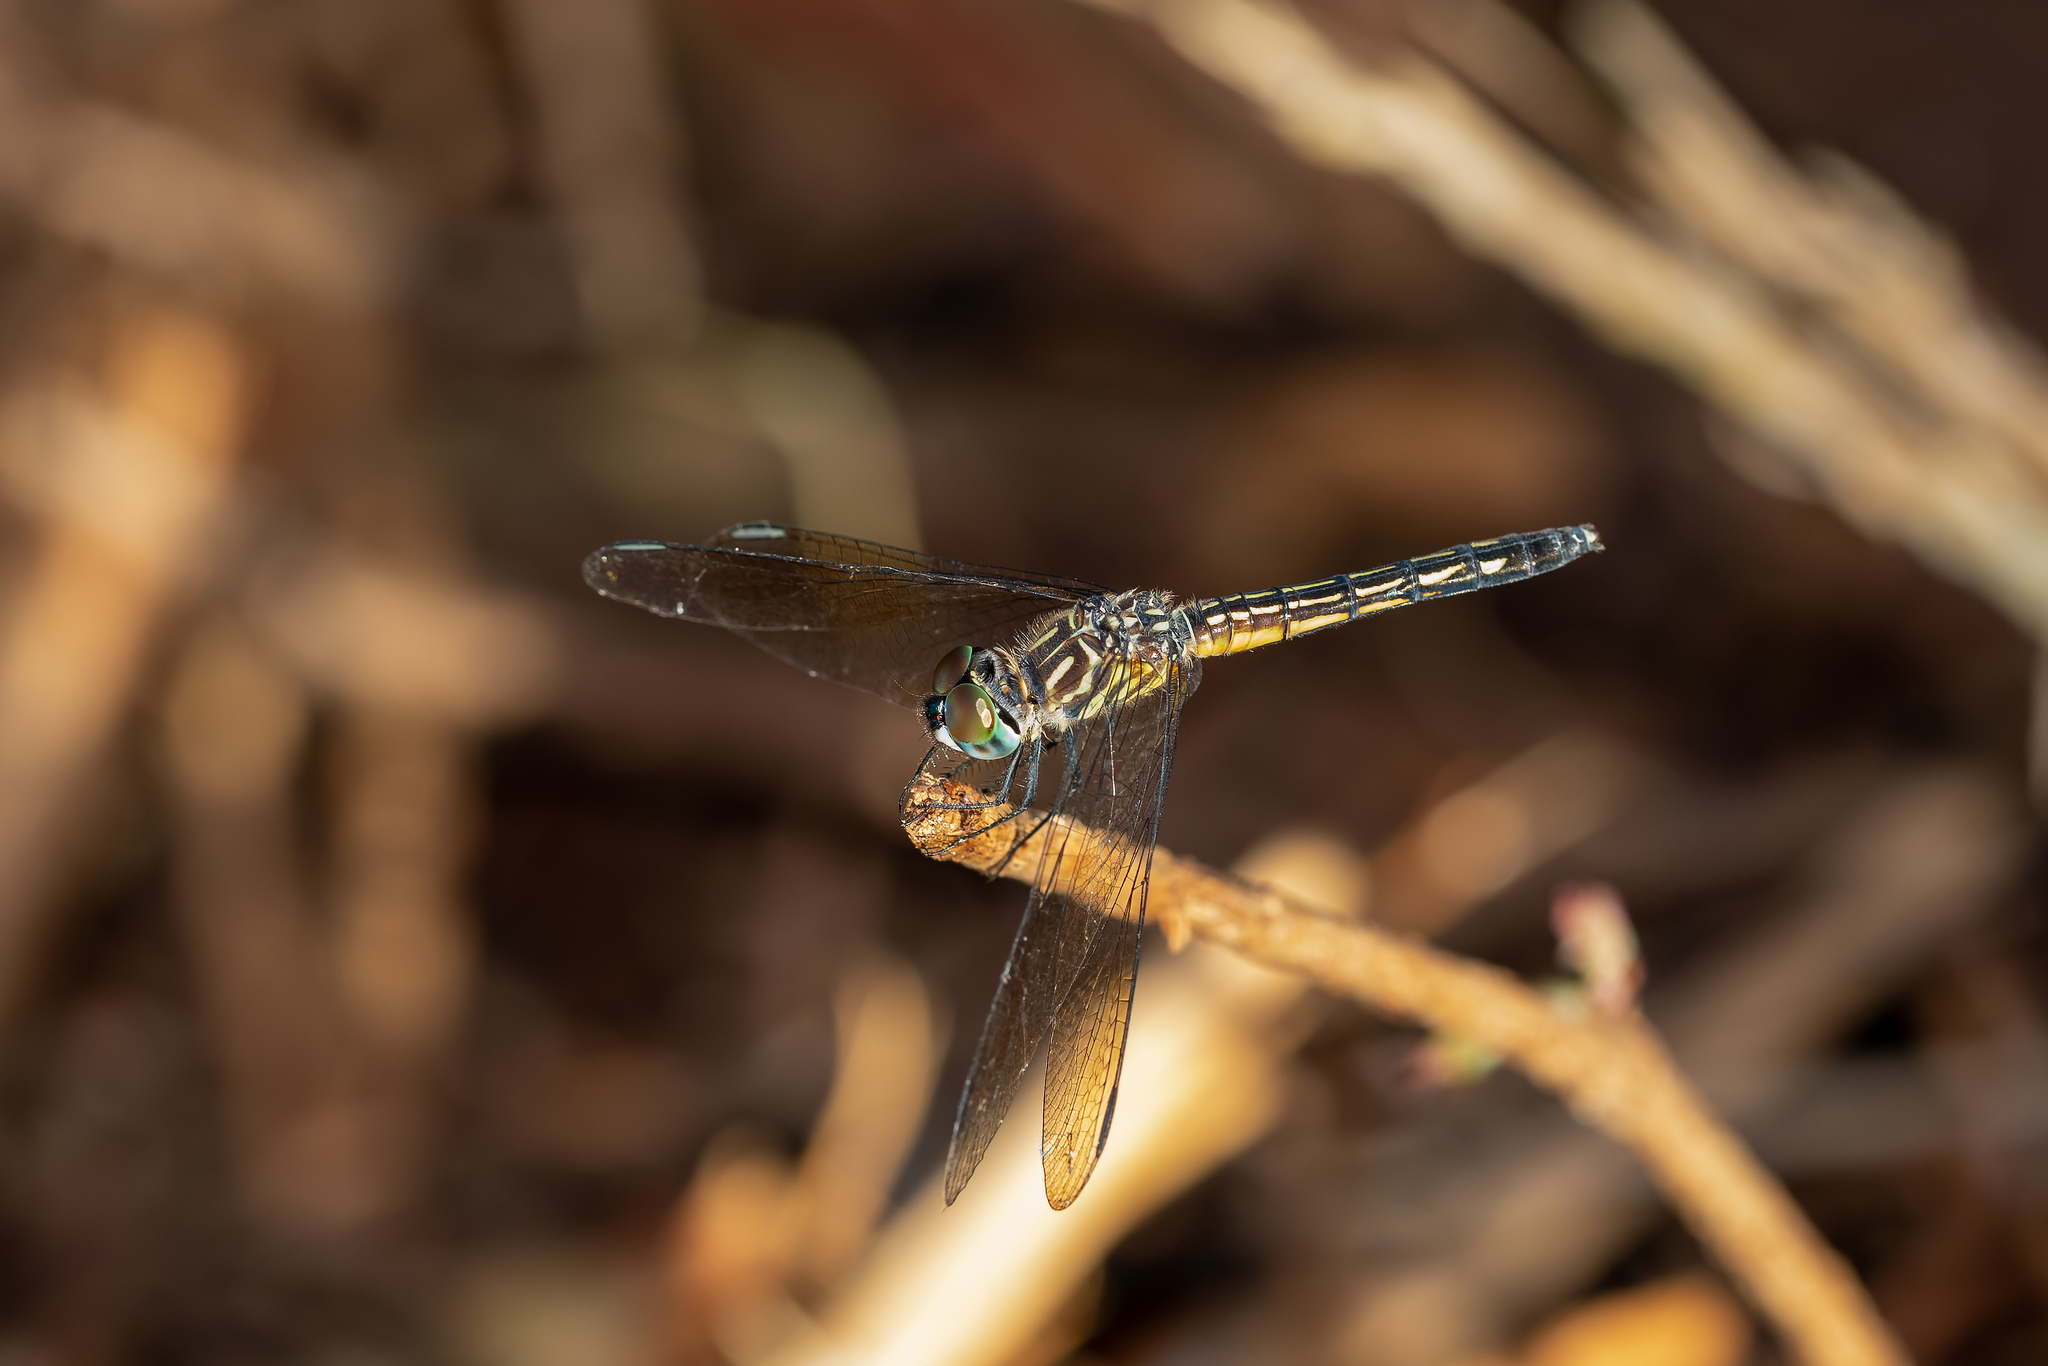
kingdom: Animalia
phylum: Arthropoda
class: Insecta
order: Odonata
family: Libellulidae
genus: Pachydiplax
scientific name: Pachydiplax longipennis
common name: Blue dasher
